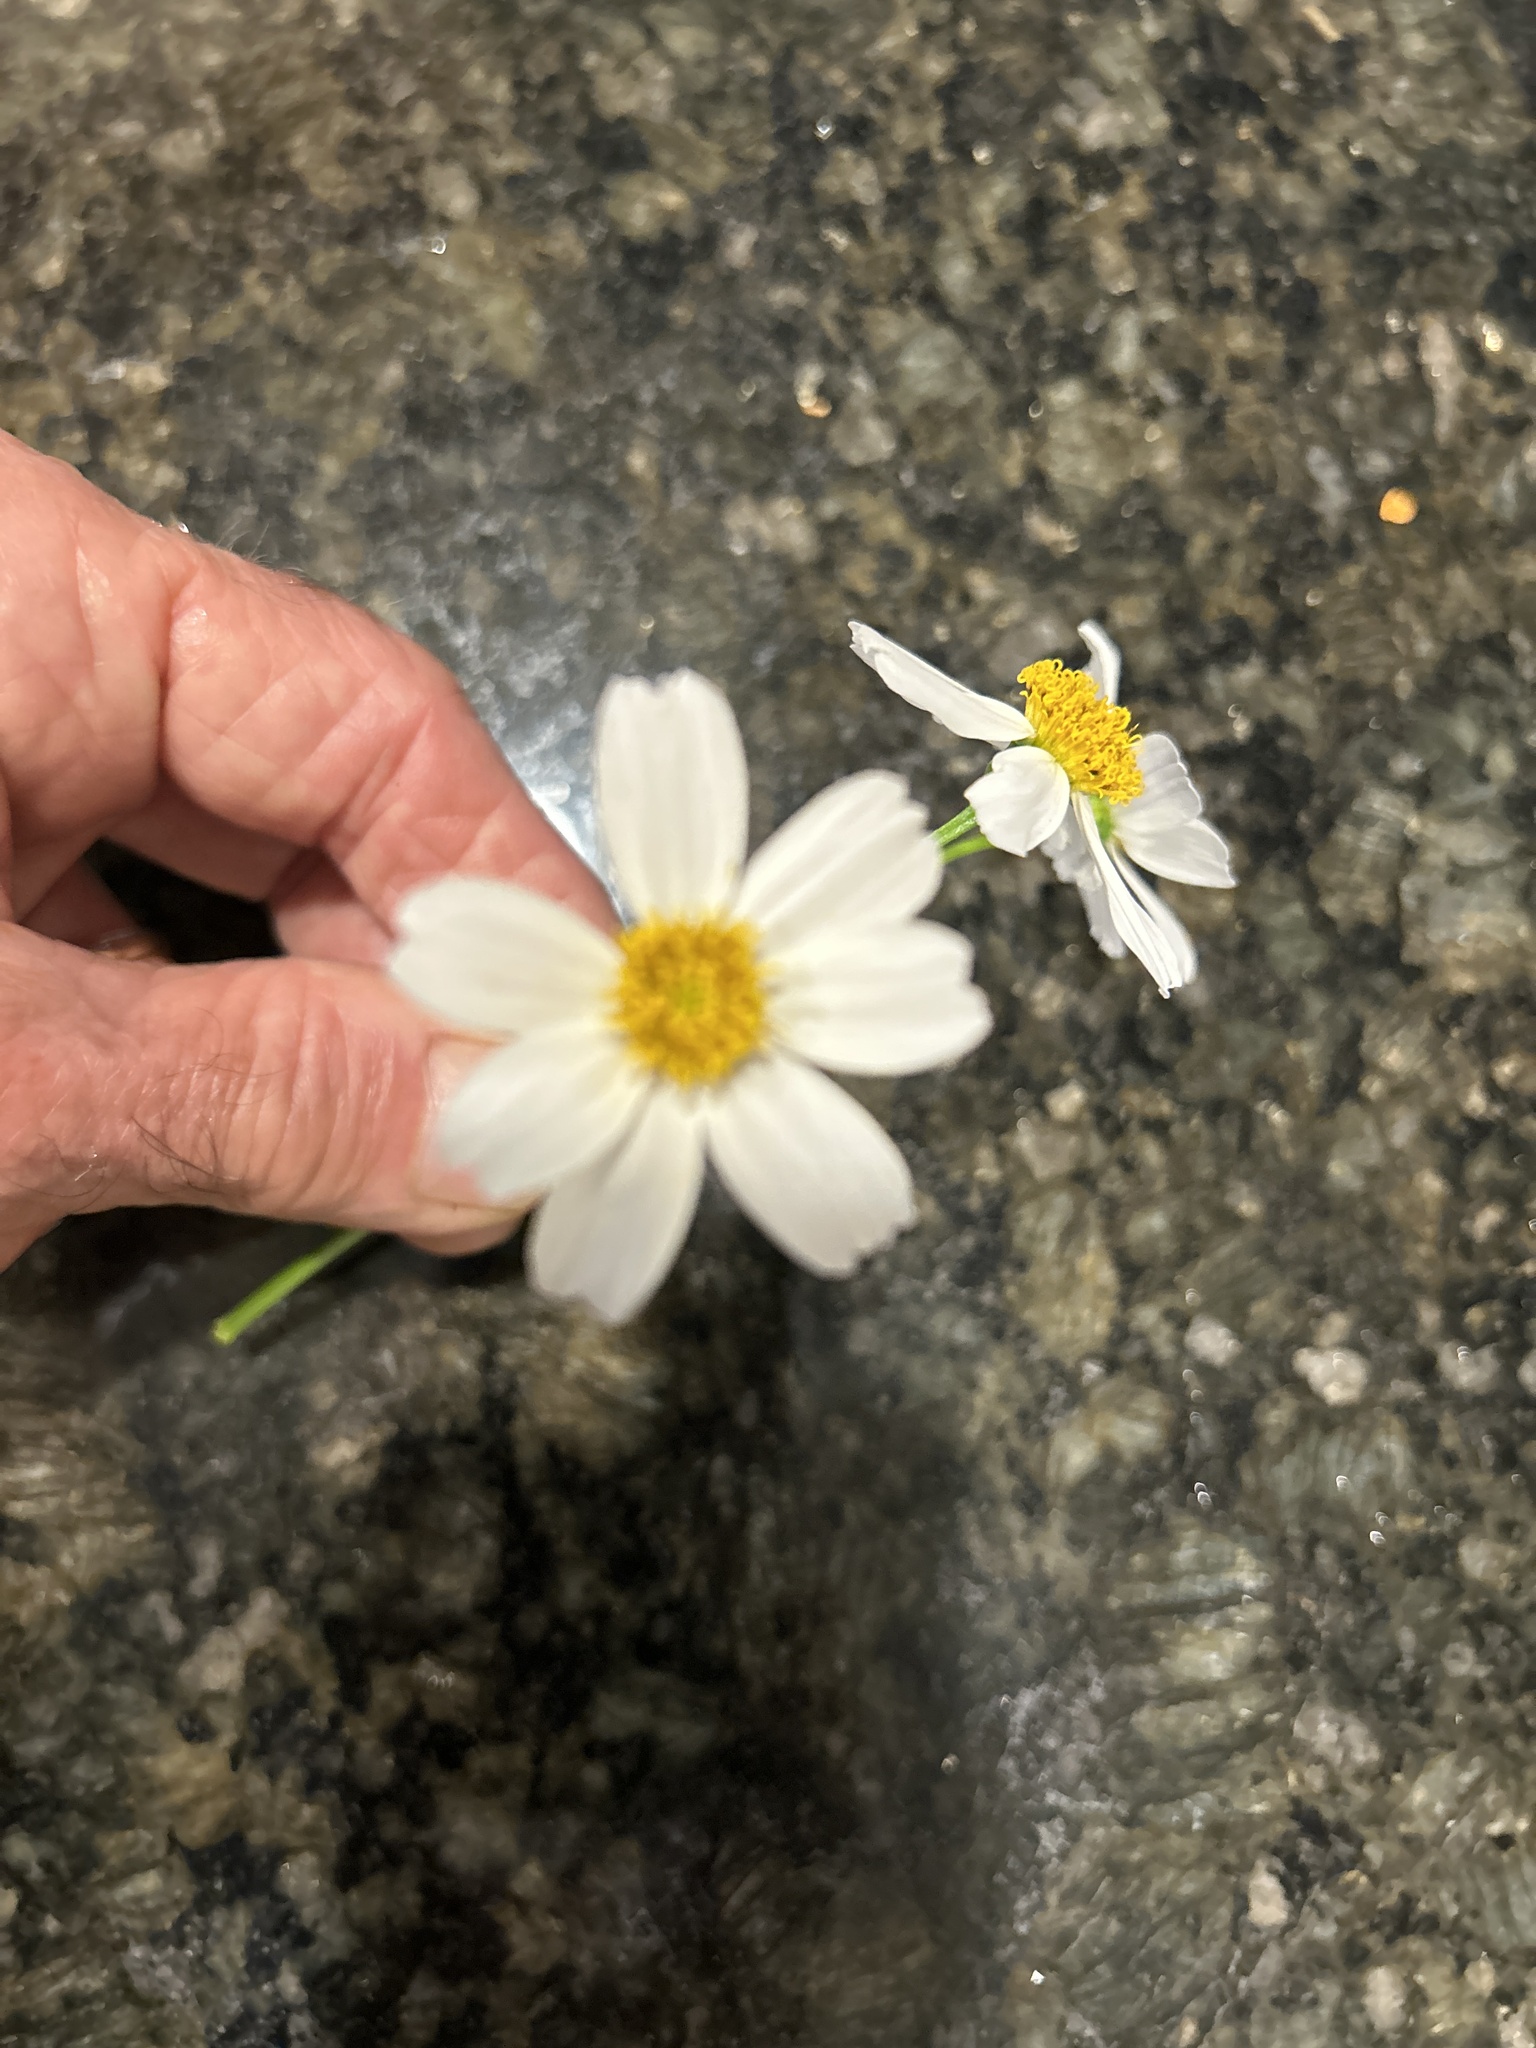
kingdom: Plantae
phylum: Tracheophyta
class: Magnoliopsida
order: Asterales
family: Asteraceae
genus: Bidens
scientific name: Bidens alba
